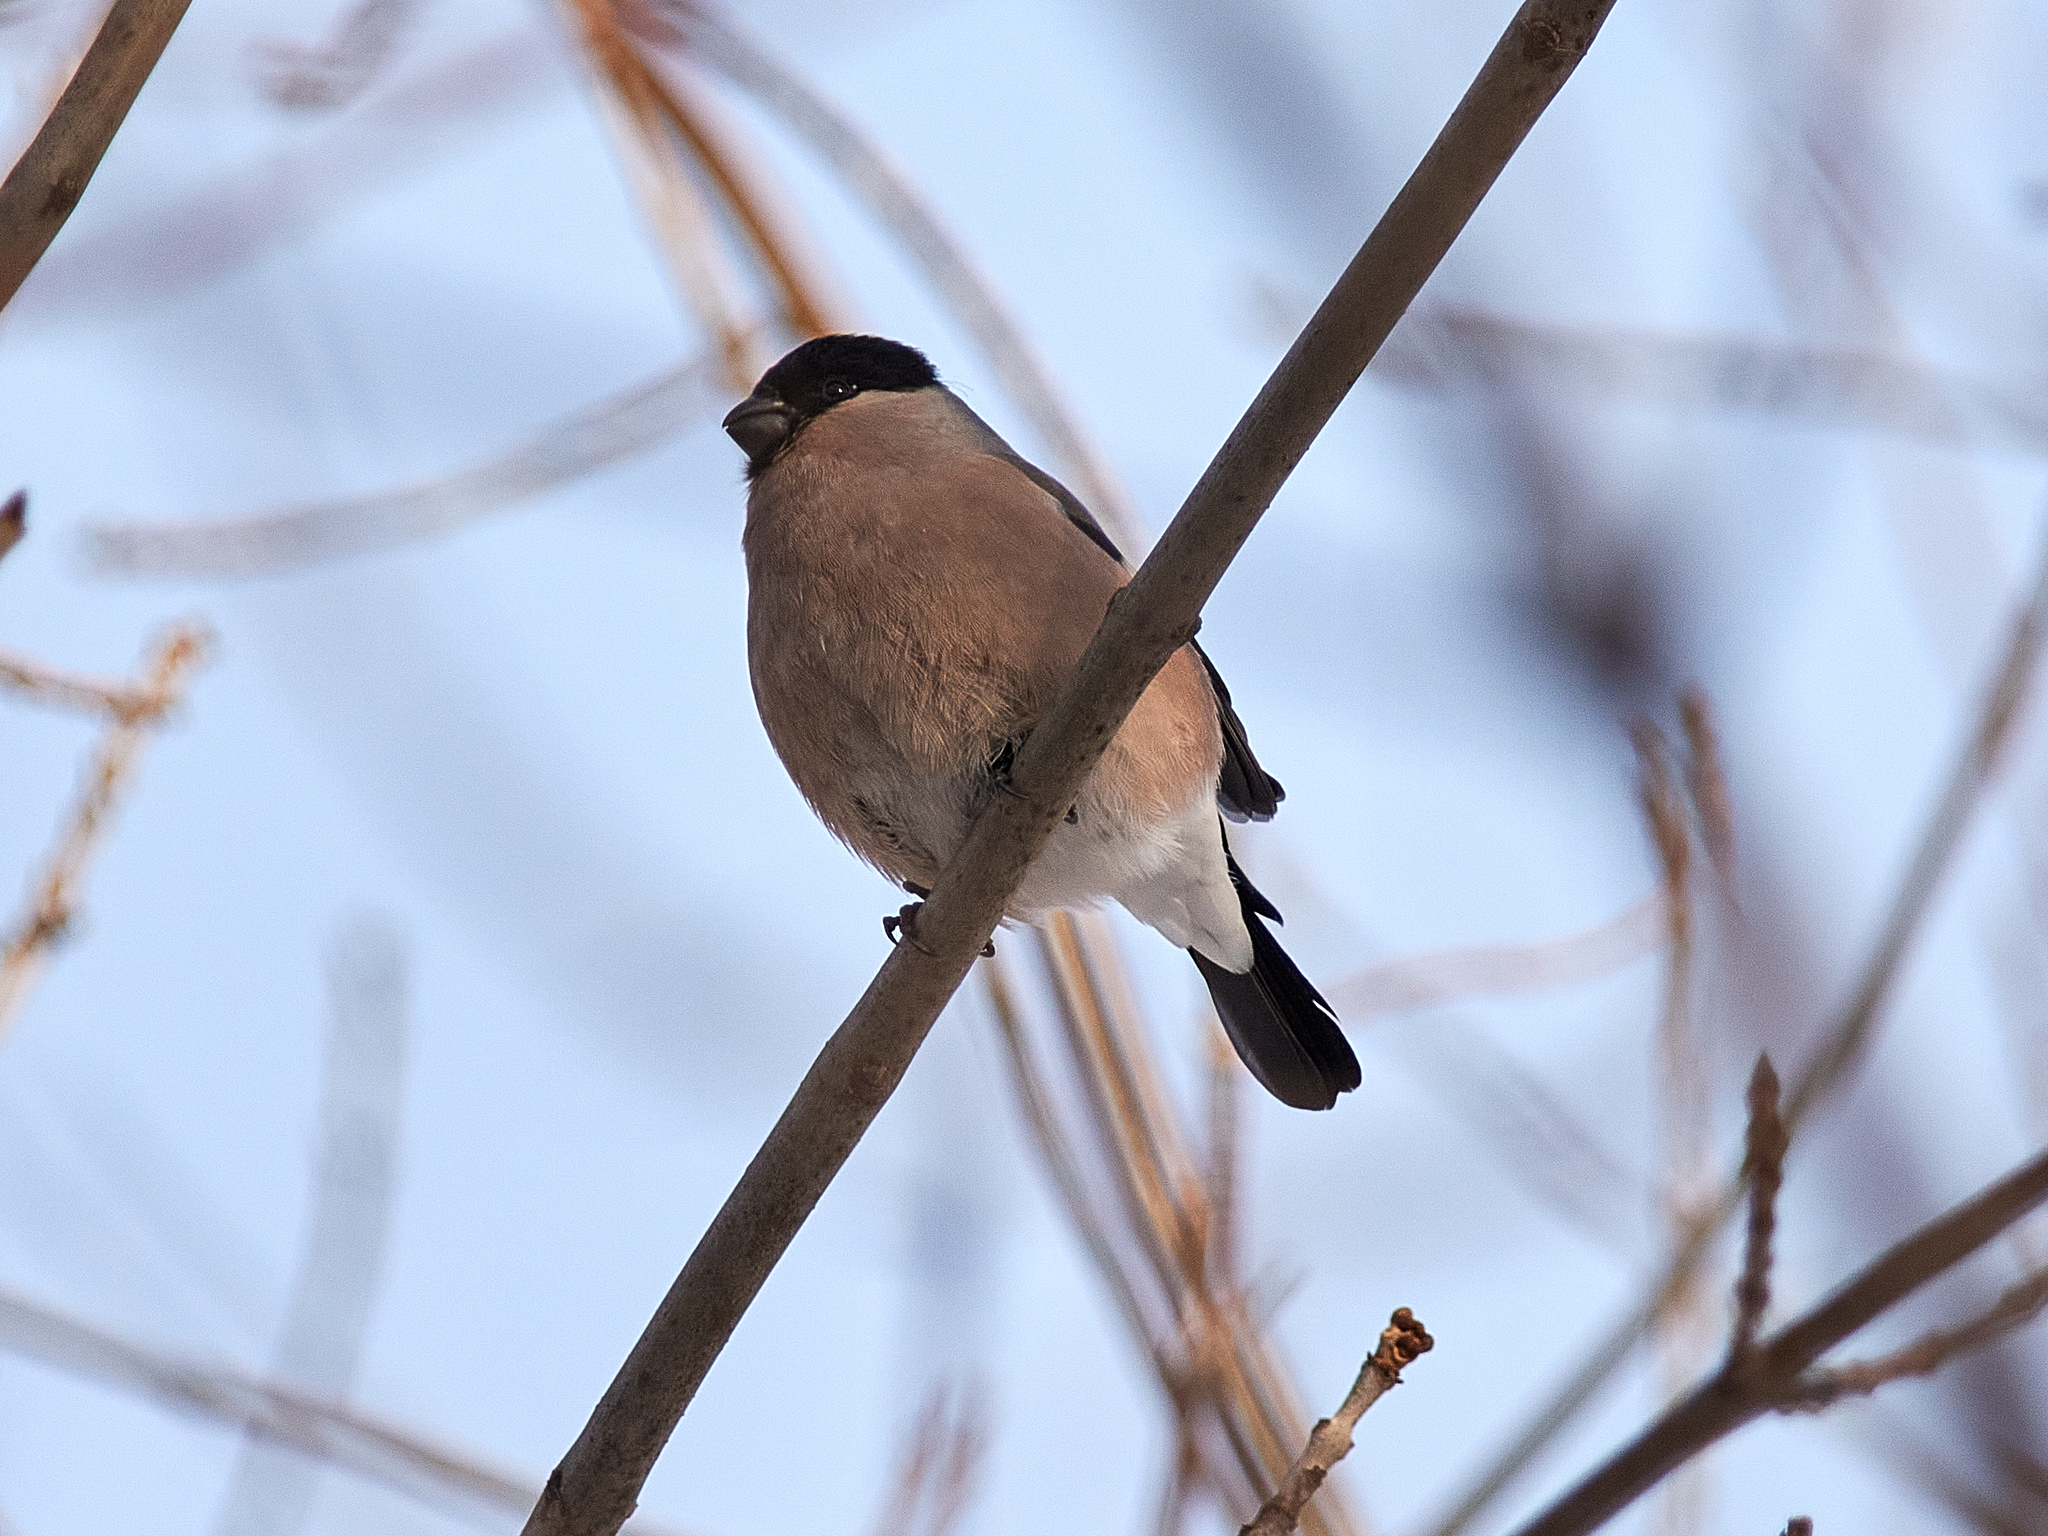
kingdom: Animalia
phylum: Chordata
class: Aves
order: Passeriformes
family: Fringillidae
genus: Pyrrhula
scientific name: Pyrrhula pyrrhula
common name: Eurasian bullfinch
